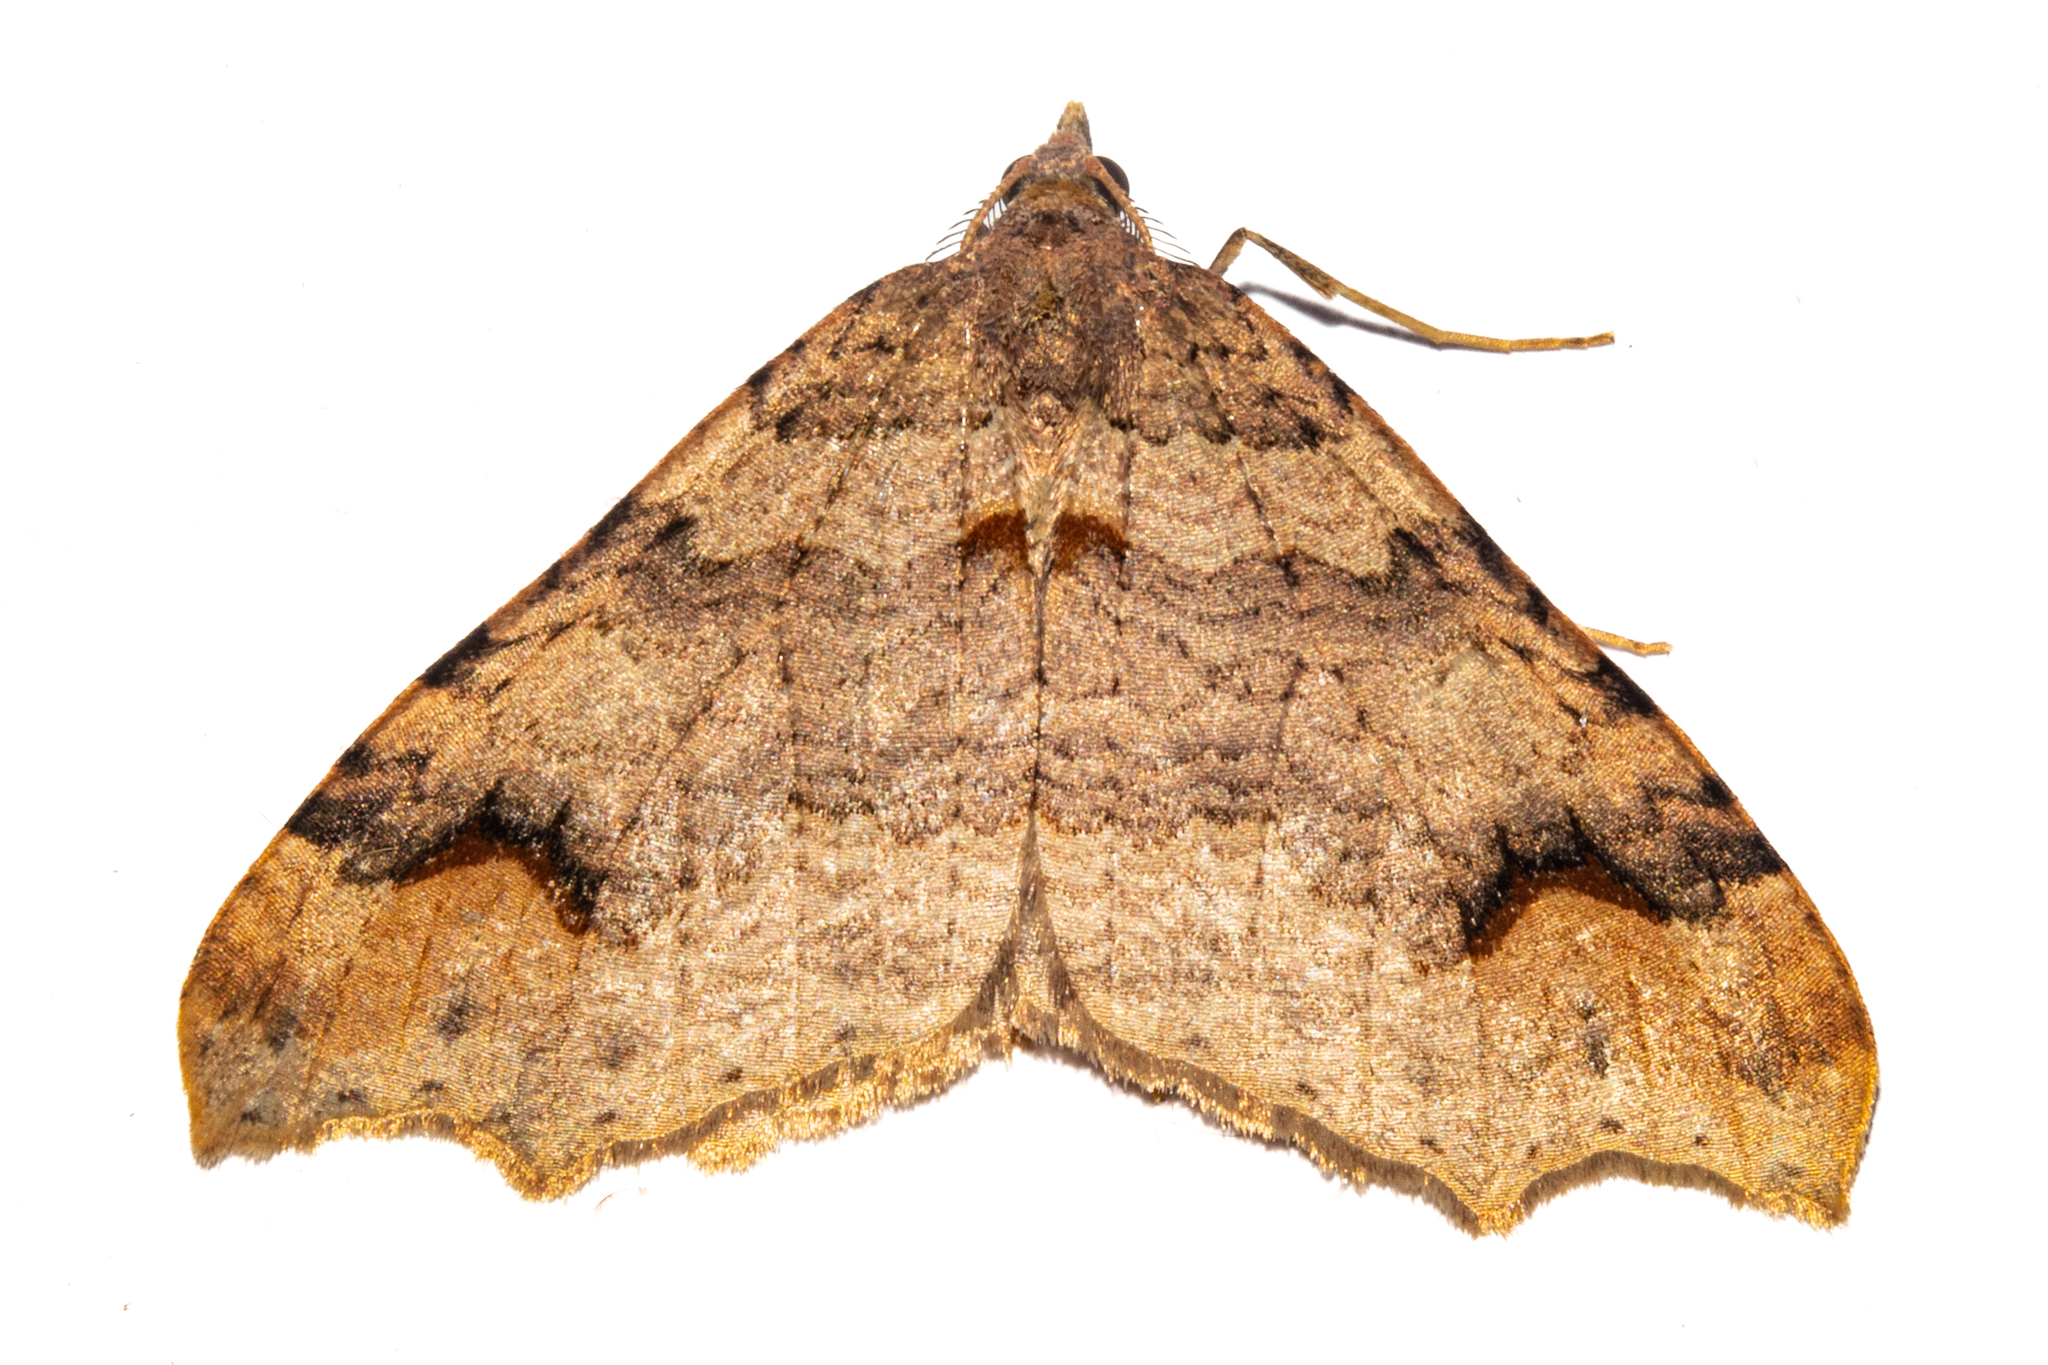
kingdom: Animalia
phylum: Arthropoda
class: Insecta
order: Lepidoptera
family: Geometridae
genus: Austrocidaria
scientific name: Austrocidaria parora
